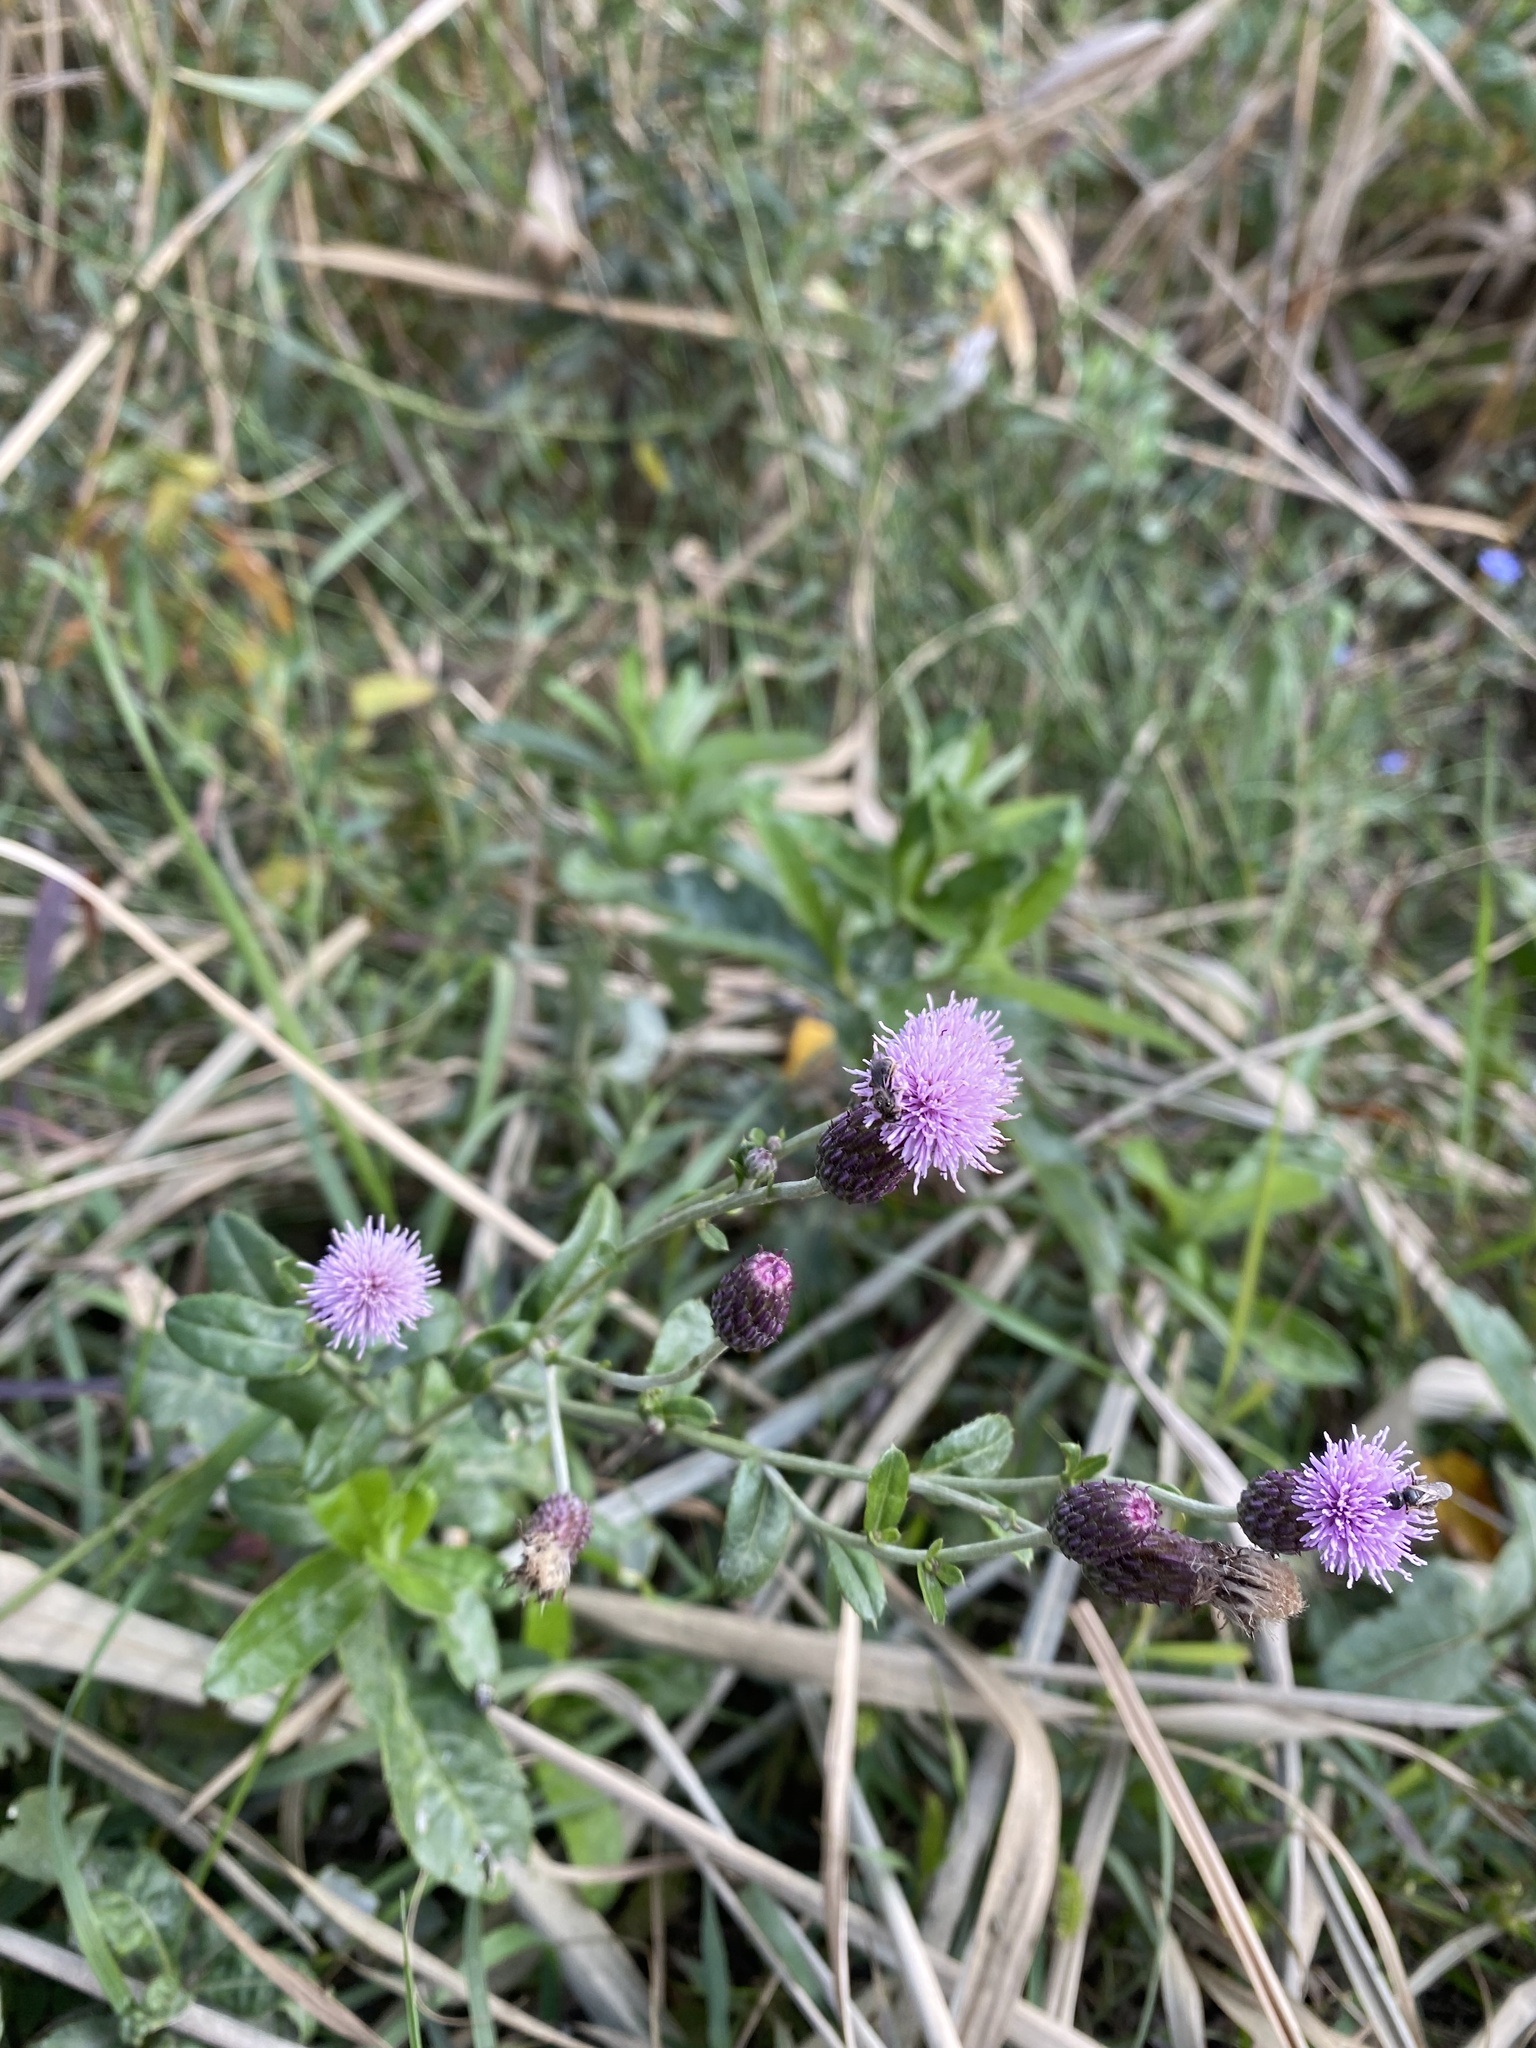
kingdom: Plantae
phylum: Tracheophyta
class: Magnoliopsida
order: Asterales
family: Asteraceae
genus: Cirsium
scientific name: Cirsium arvense
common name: Creeping thistle
